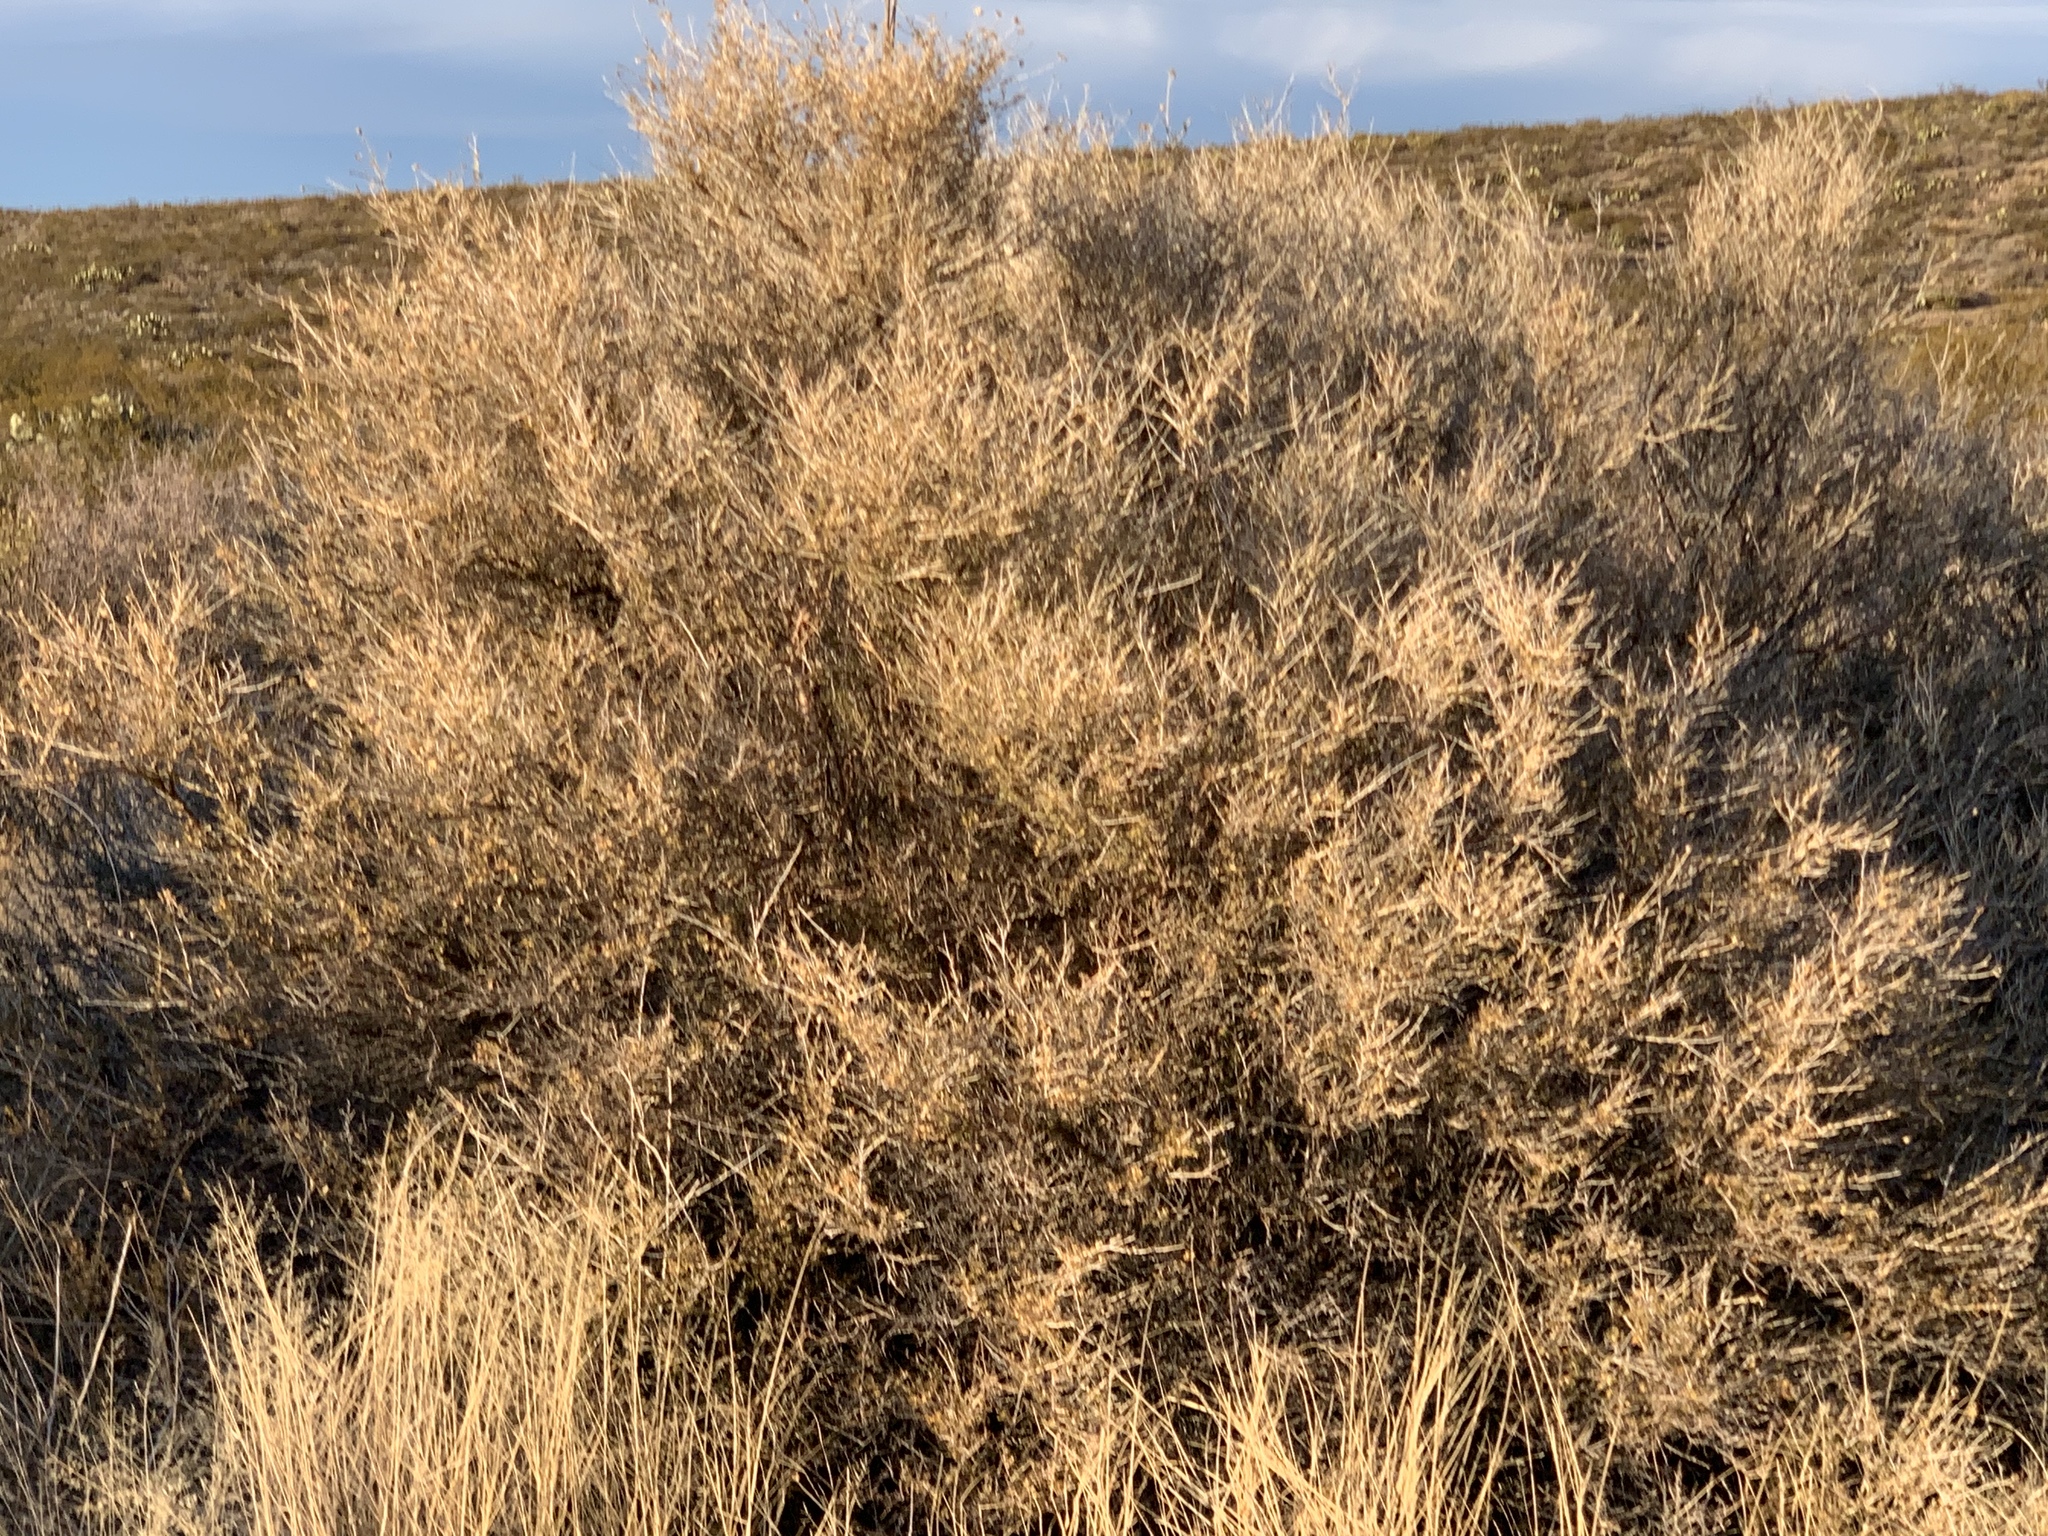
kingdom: Plantae
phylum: Tracheophyta
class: Magnoliopsida
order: Rosales
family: Rosaceae
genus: Fallugia
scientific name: Fallugia paradoxa
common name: Apache-plume
